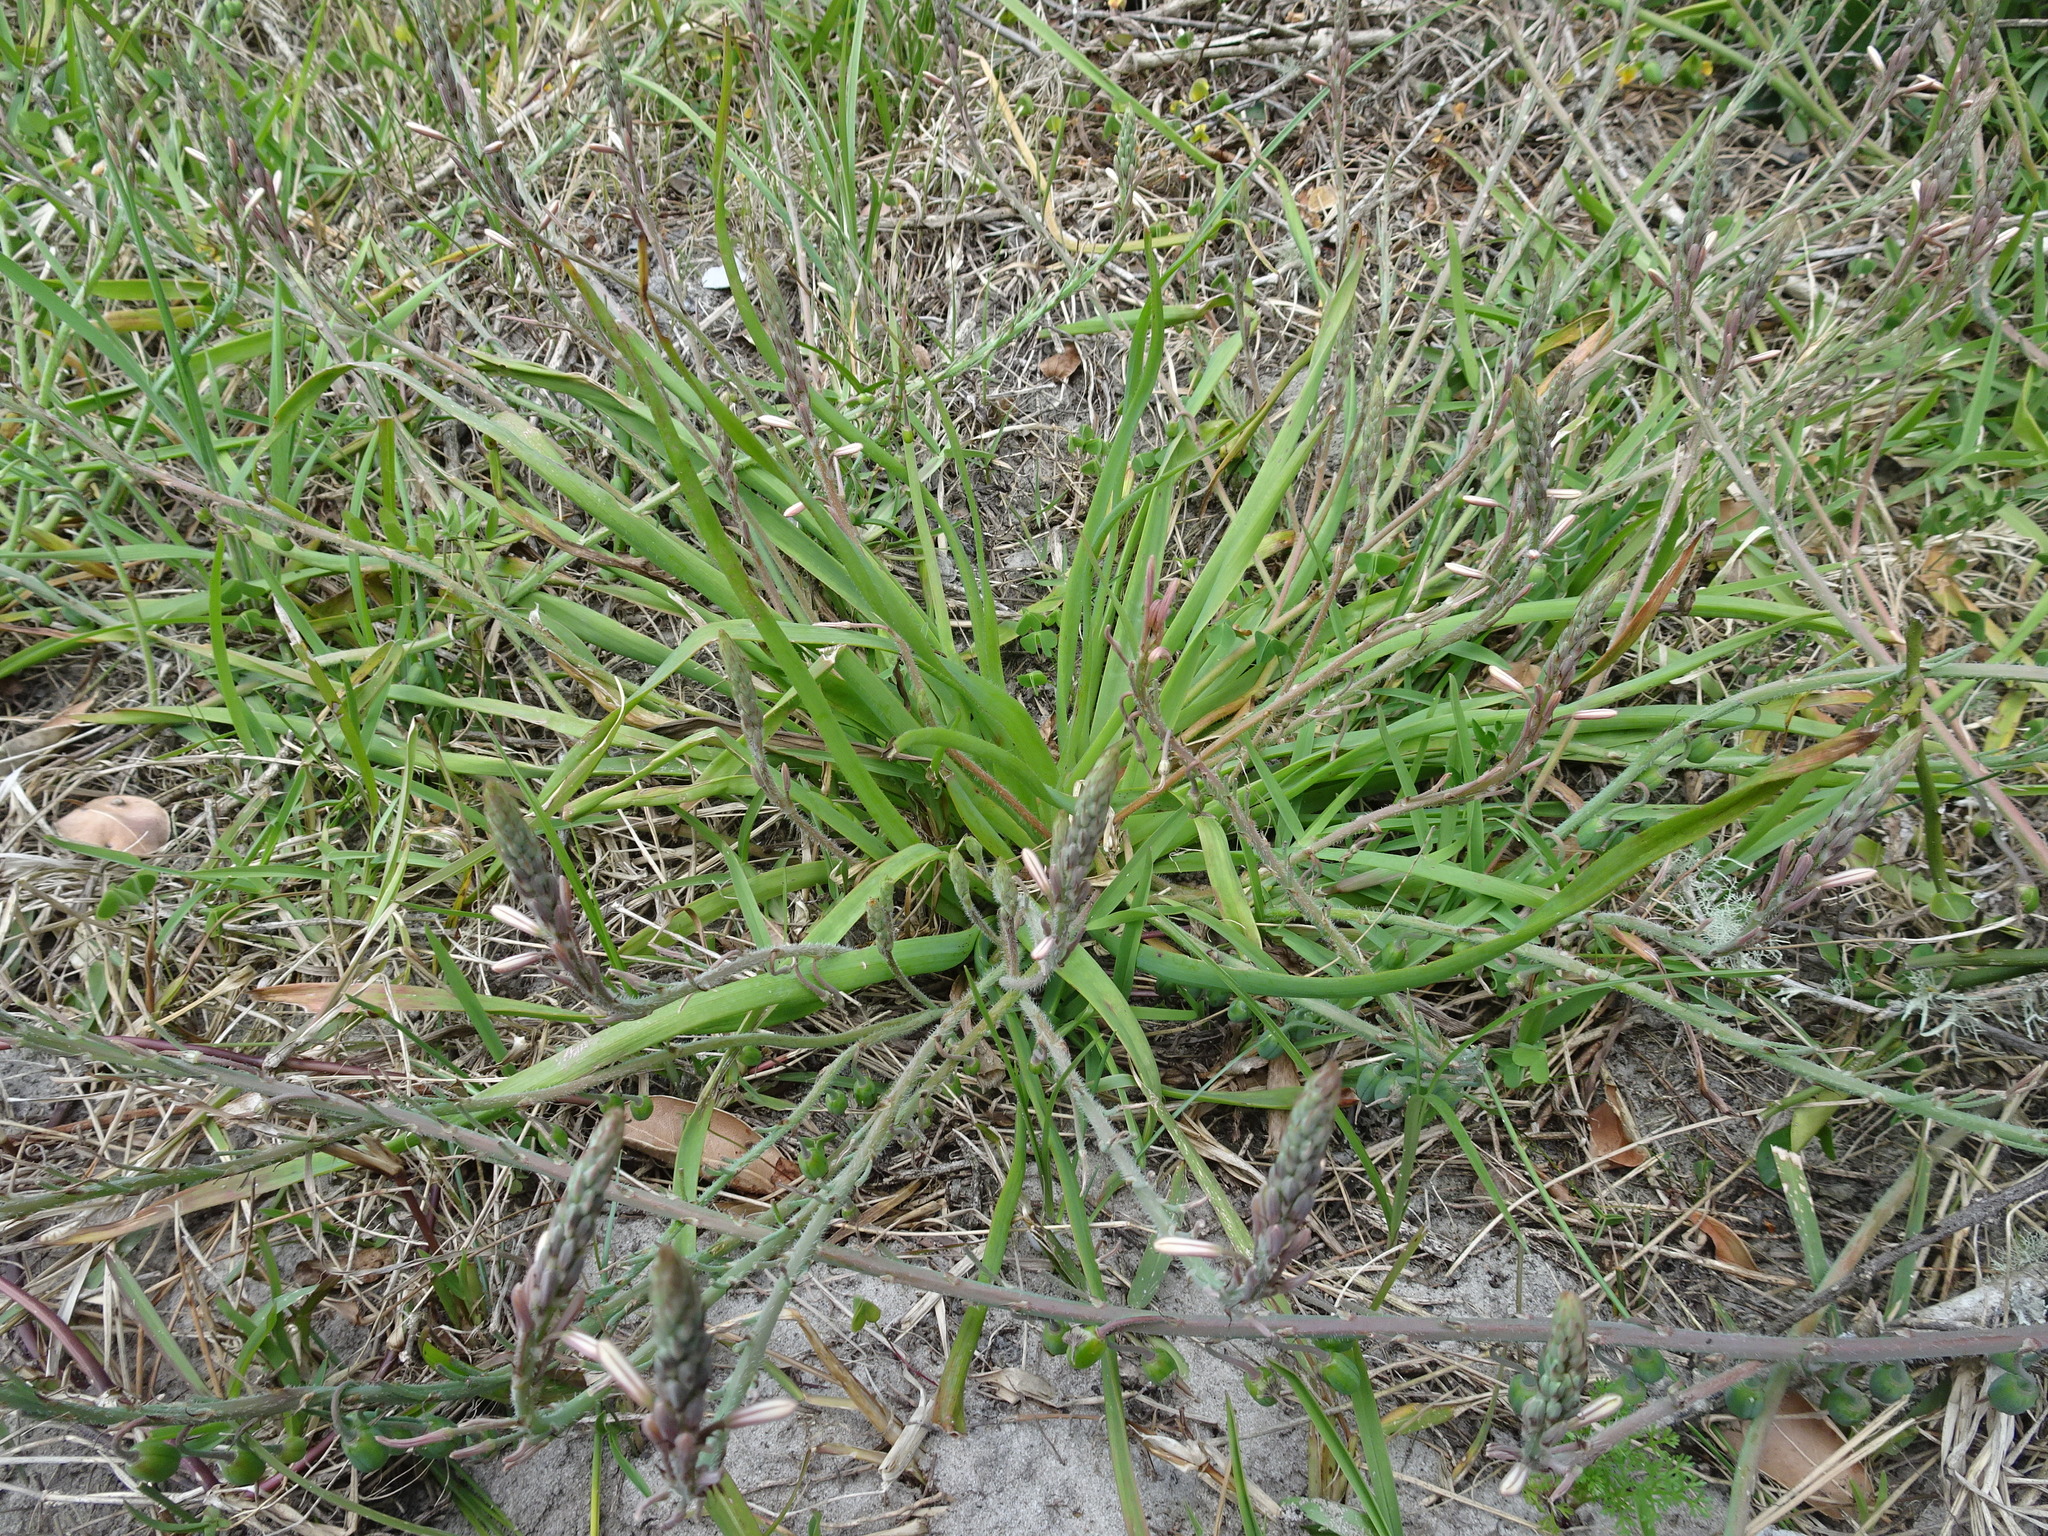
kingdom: Plantae
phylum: Tracheophyta
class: Liliopsida
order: Asparagales
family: Asphodelaceae
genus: Trachyandra
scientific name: Trachyandra ciliata
